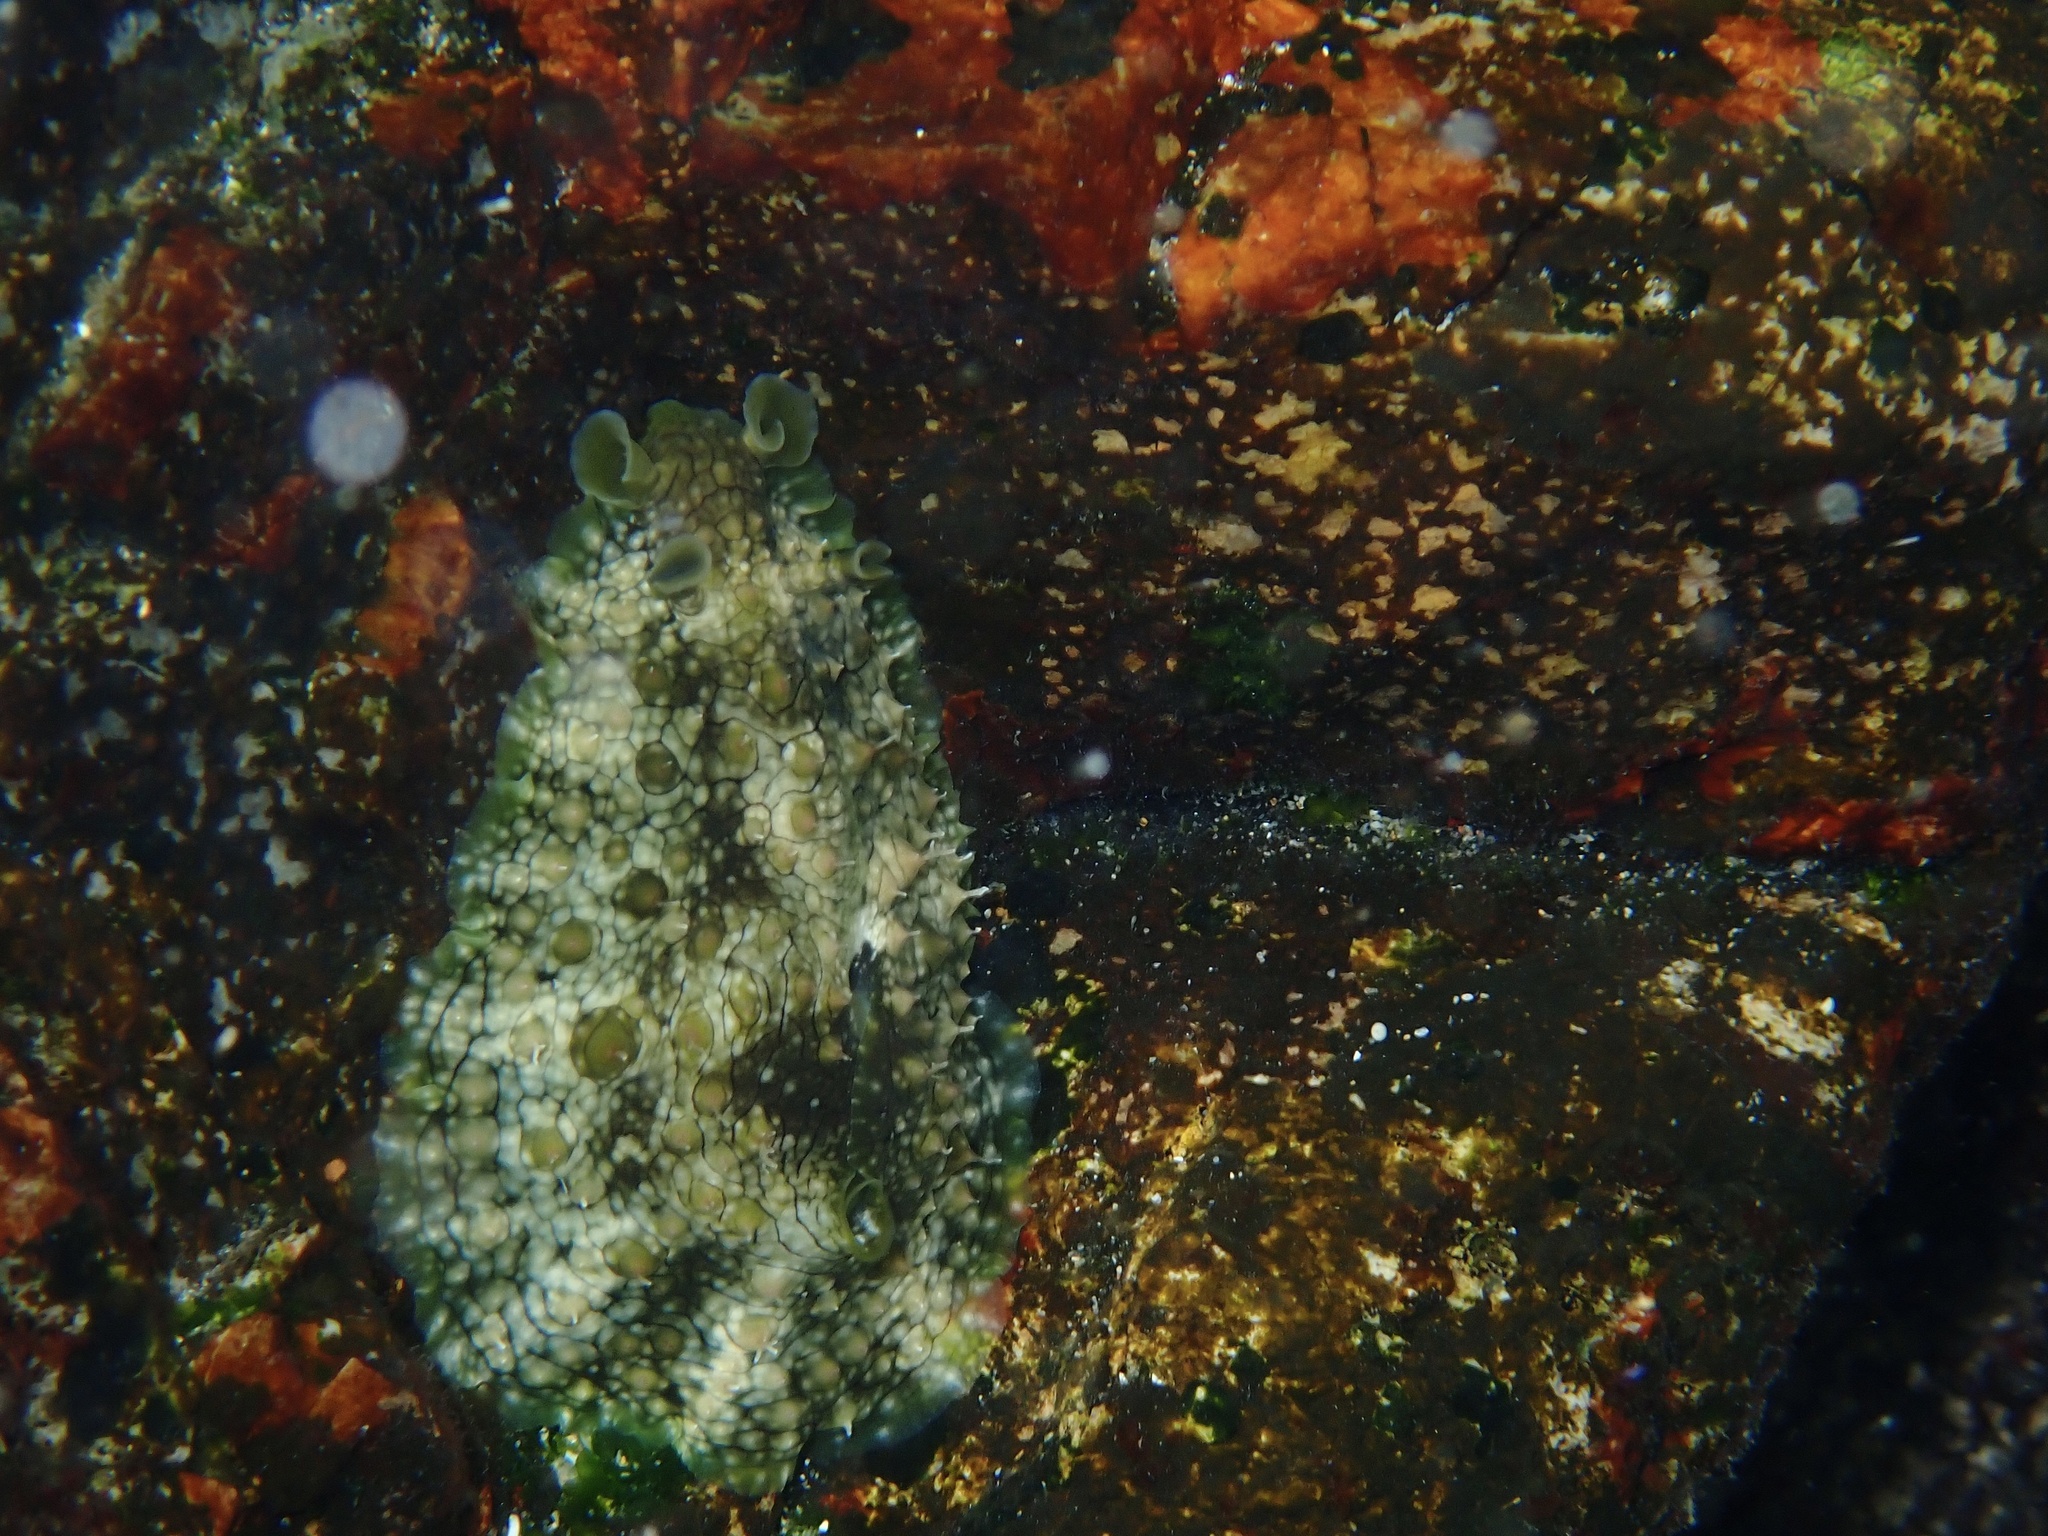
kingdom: Animalia
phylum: Mollusca
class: Gastropoda
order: Aplysiida
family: Aplysiidae
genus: Dolabrifera
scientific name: Dolabrifera brazieri
